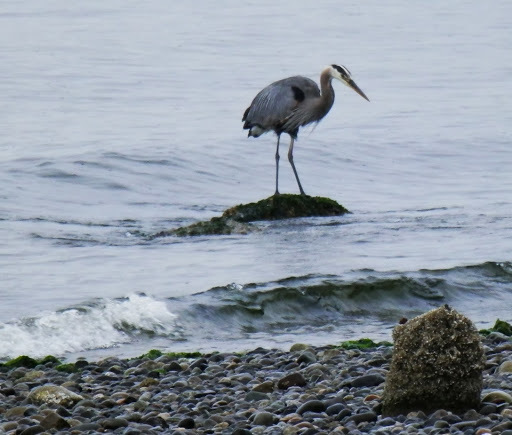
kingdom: Animalia
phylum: Chordata
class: Aves
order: Pelecaniformes
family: Ardeidae
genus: Ardea
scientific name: Ardea herodias
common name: Great blue heron
